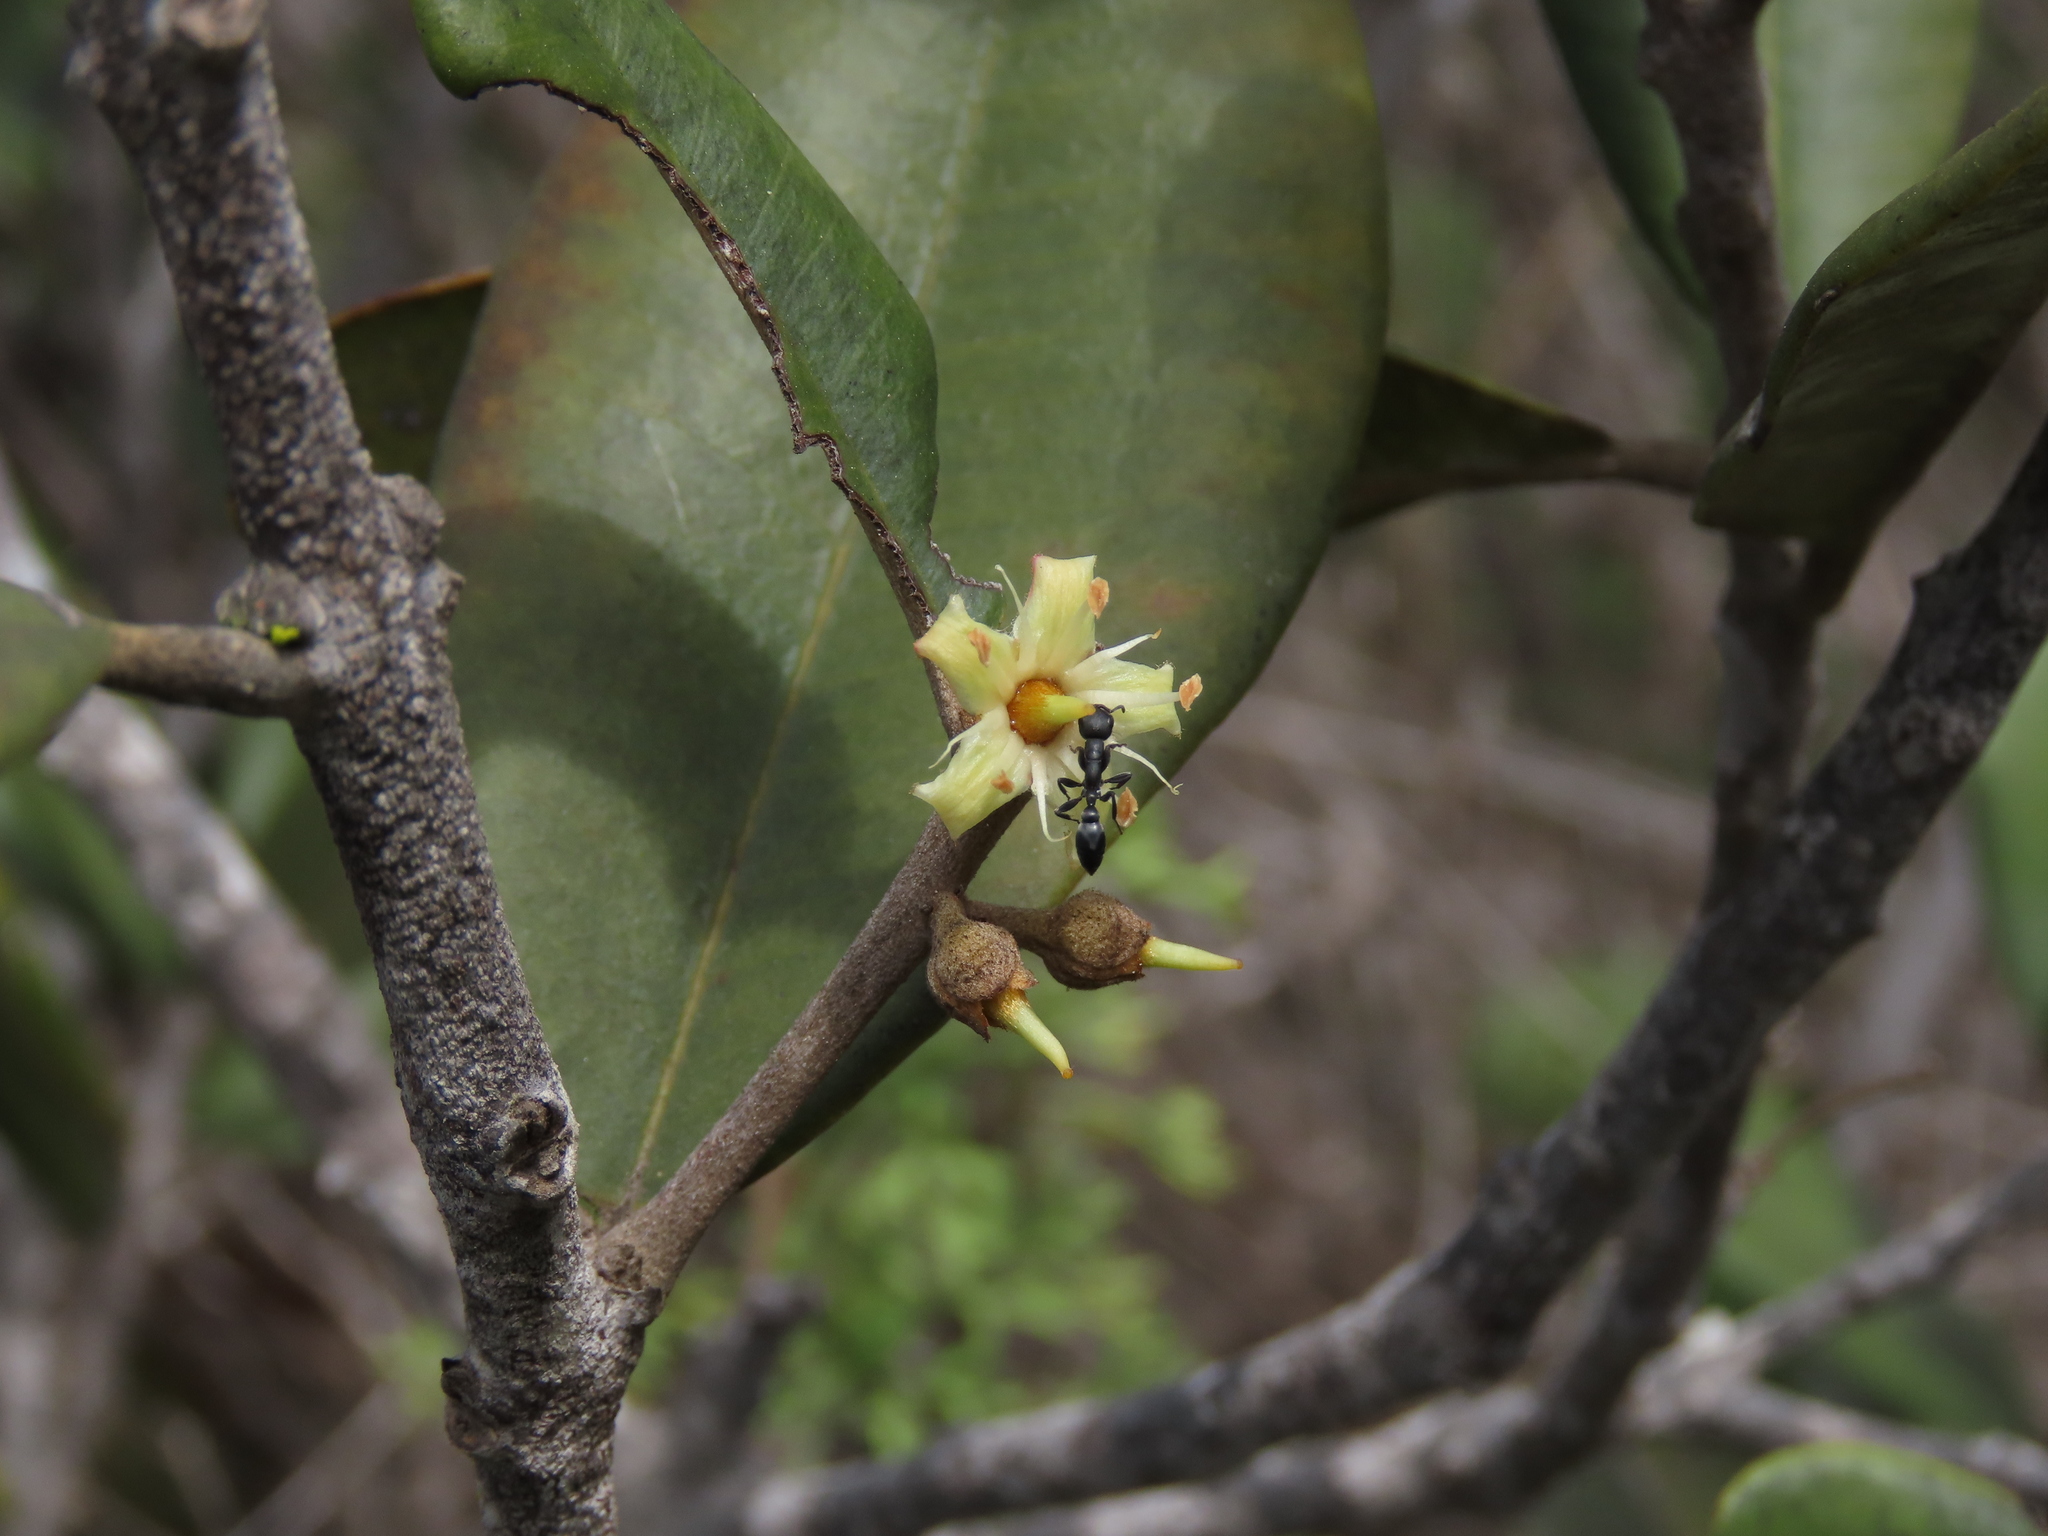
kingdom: Plantae
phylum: Tracheophyta
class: Magnoliopsida
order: Ericales
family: Sapotaceae
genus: Pouteria
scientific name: Pouteria valparadisaea
